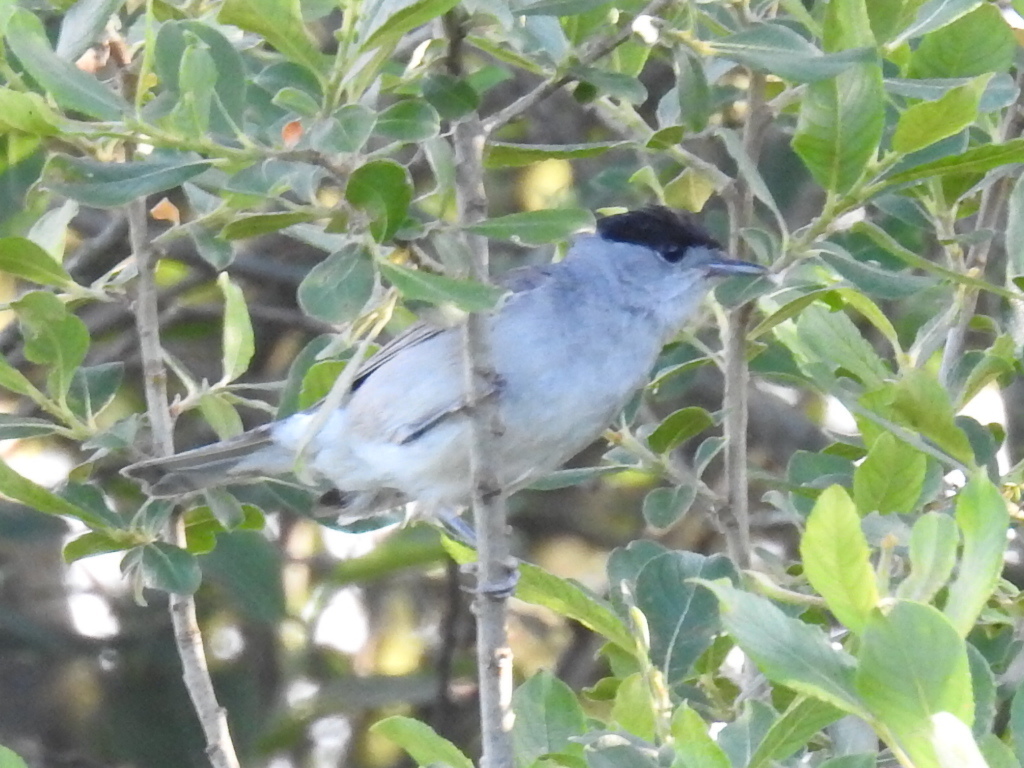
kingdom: Animalia
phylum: Chordata
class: Aves
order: Passeriformes
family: Sylviidae
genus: Sylvia
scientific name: Sylvia atricapilla
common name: Eurasian blackcap
